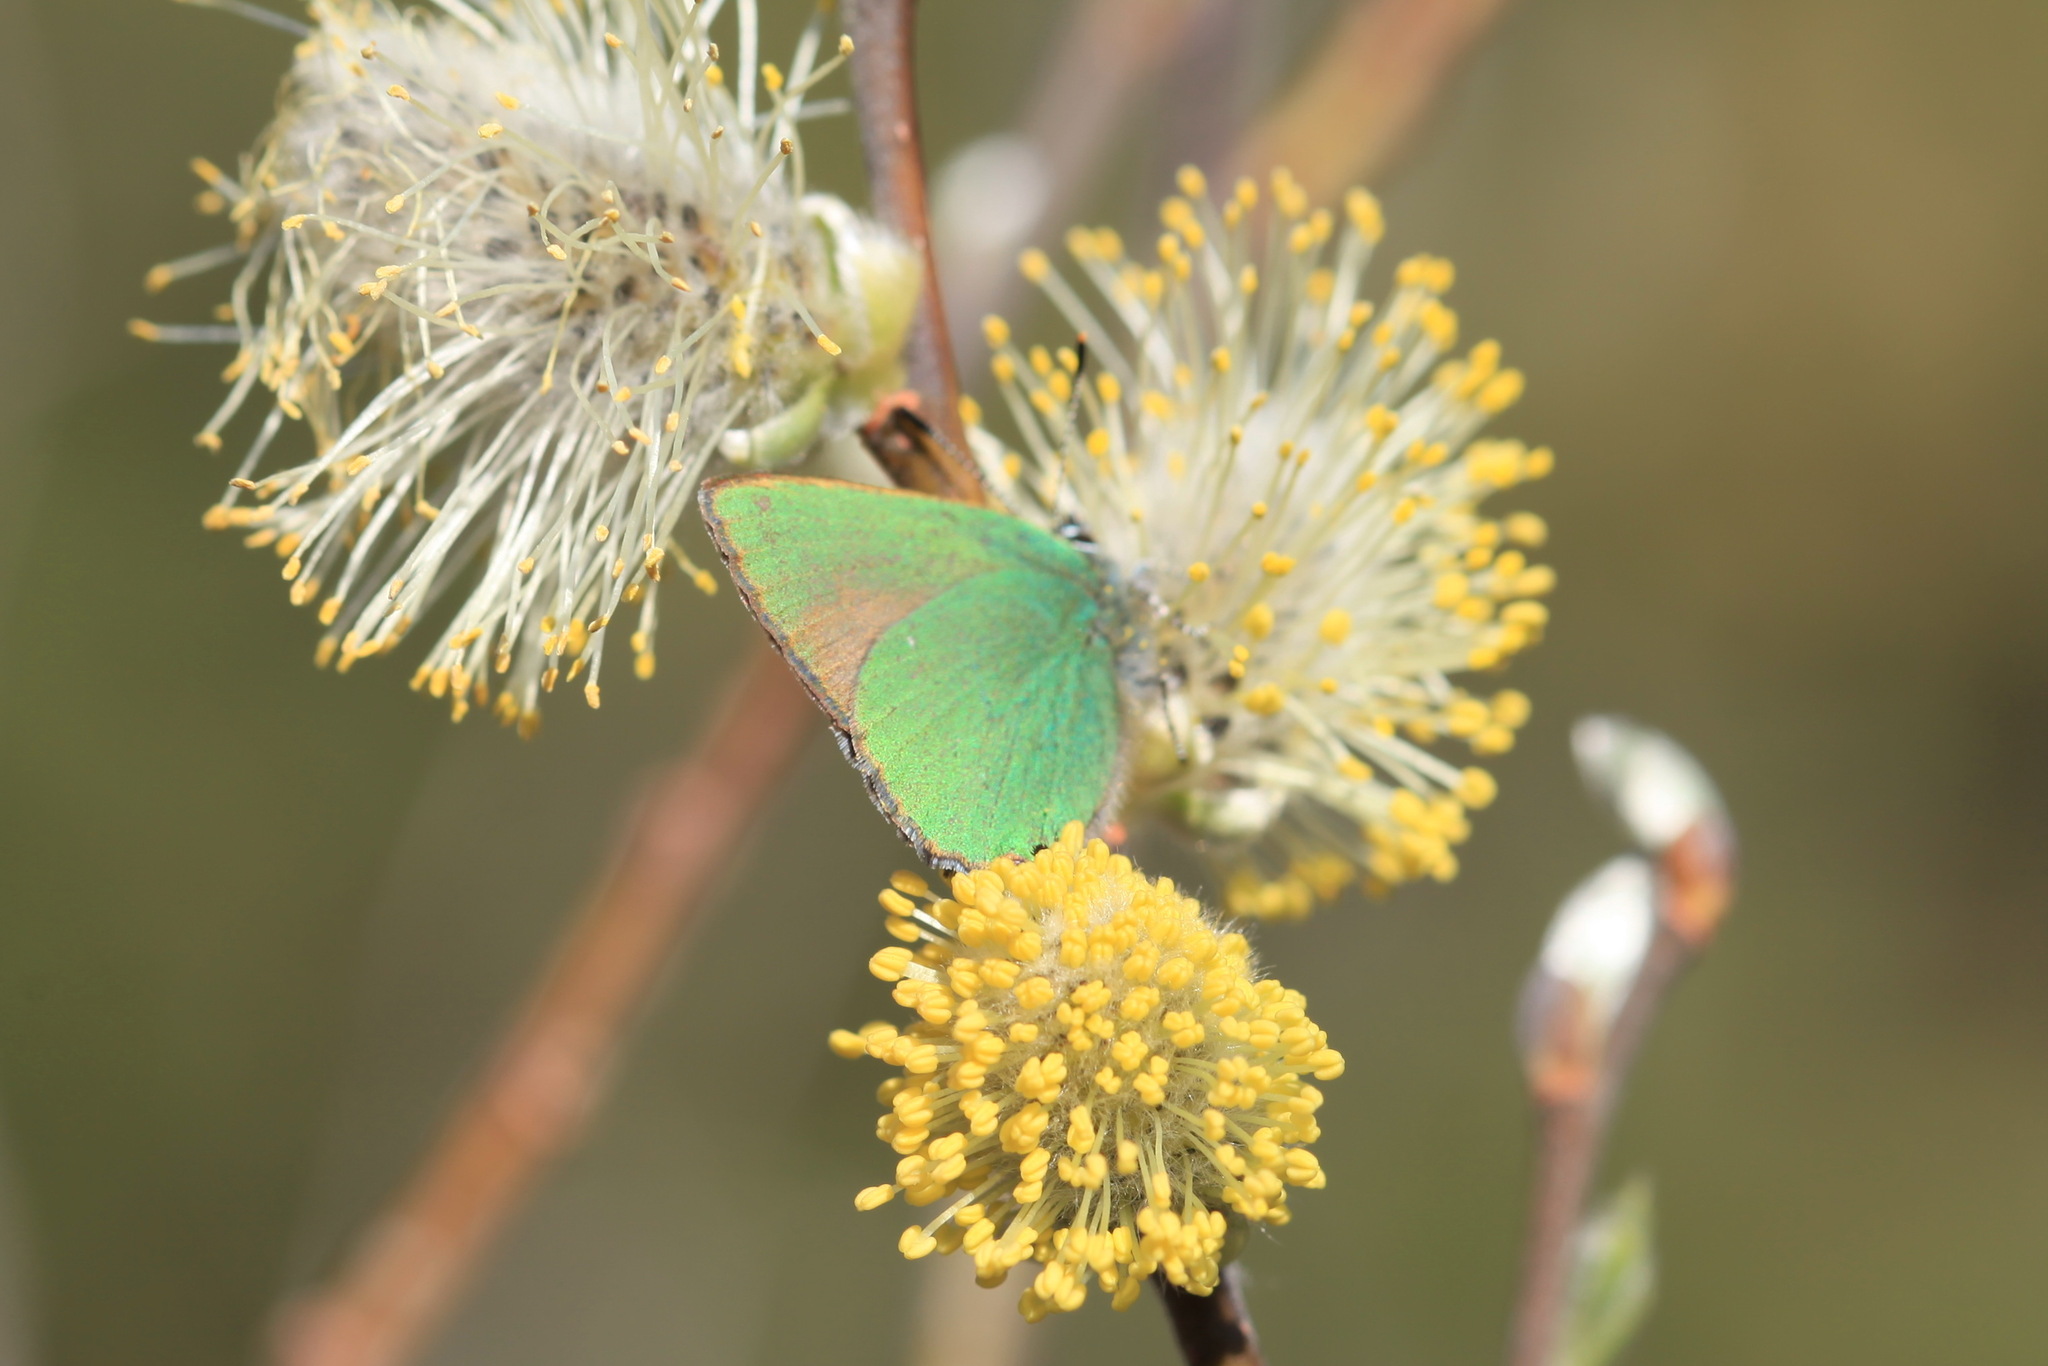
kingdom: Animalia
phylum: Arthropoda
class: Insecta
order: Lepidoptera
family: Lycaenidae
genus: Callophrys
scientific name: Callophrys rubi
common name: Green hairstreak
